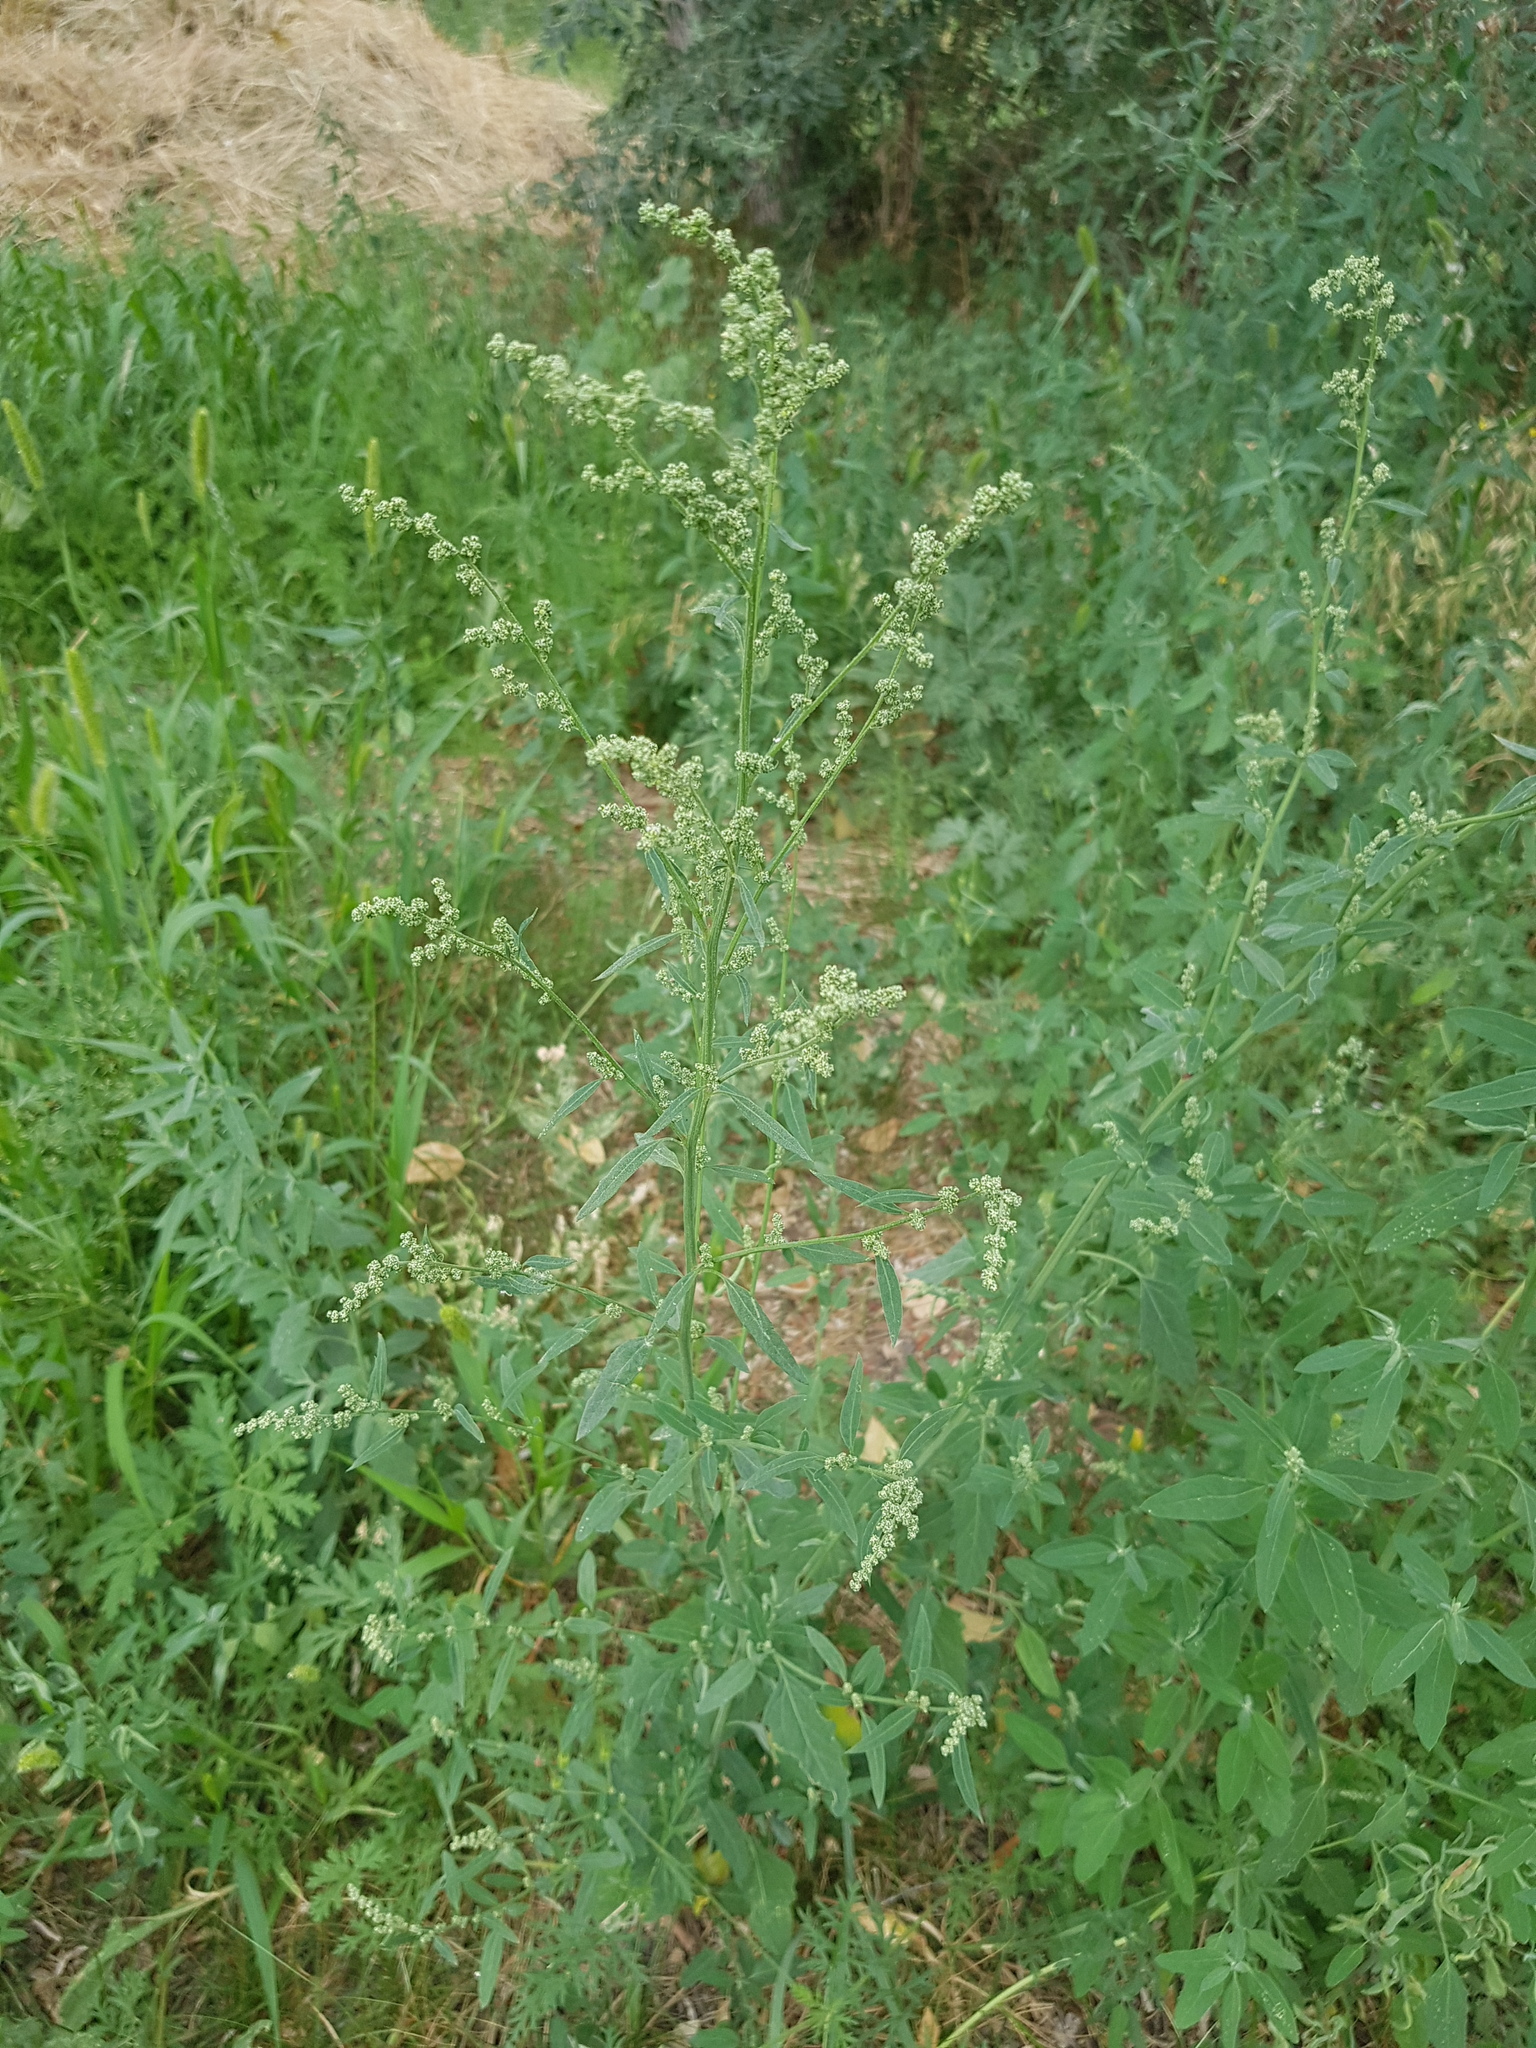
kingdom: Plantae
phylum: Tracheophyta
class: Magnoliopsida
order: Caryophyllales
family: Amaranthaceae
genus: Chenopodium
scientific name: Chenopodium album
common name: Fat-hen
